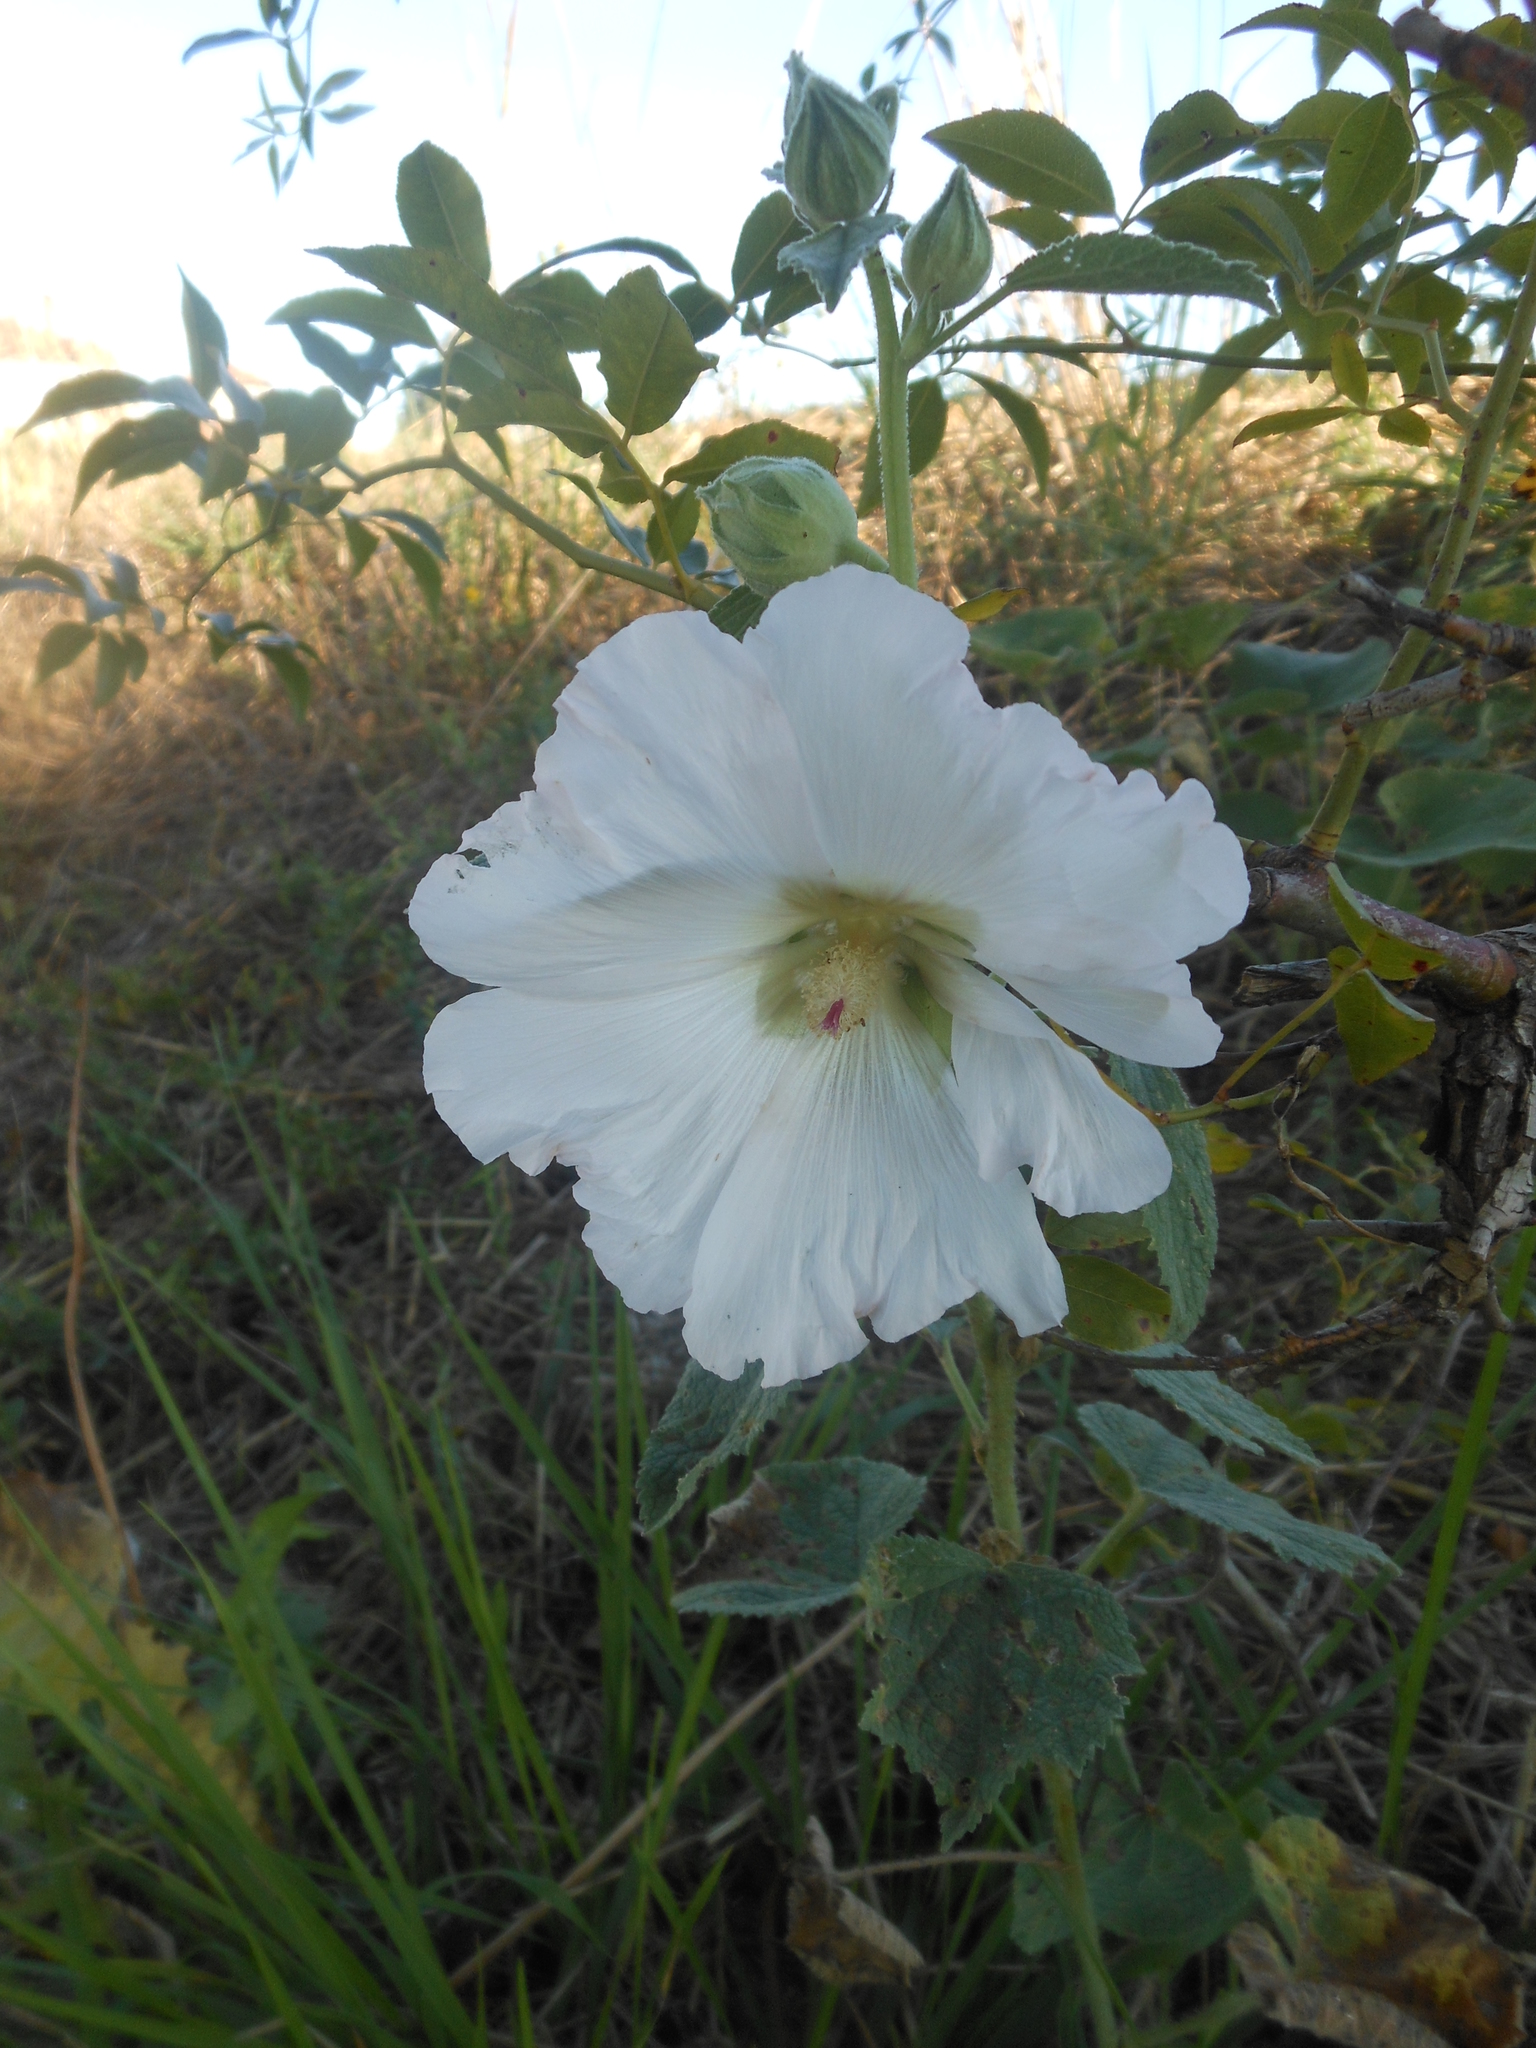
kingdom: Plantae
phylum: Tracheophyta
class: Magnoliopsida
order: Malvales
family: Malvaceae
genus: Alcea
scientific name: Alcea rosea
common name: Hollyhock
